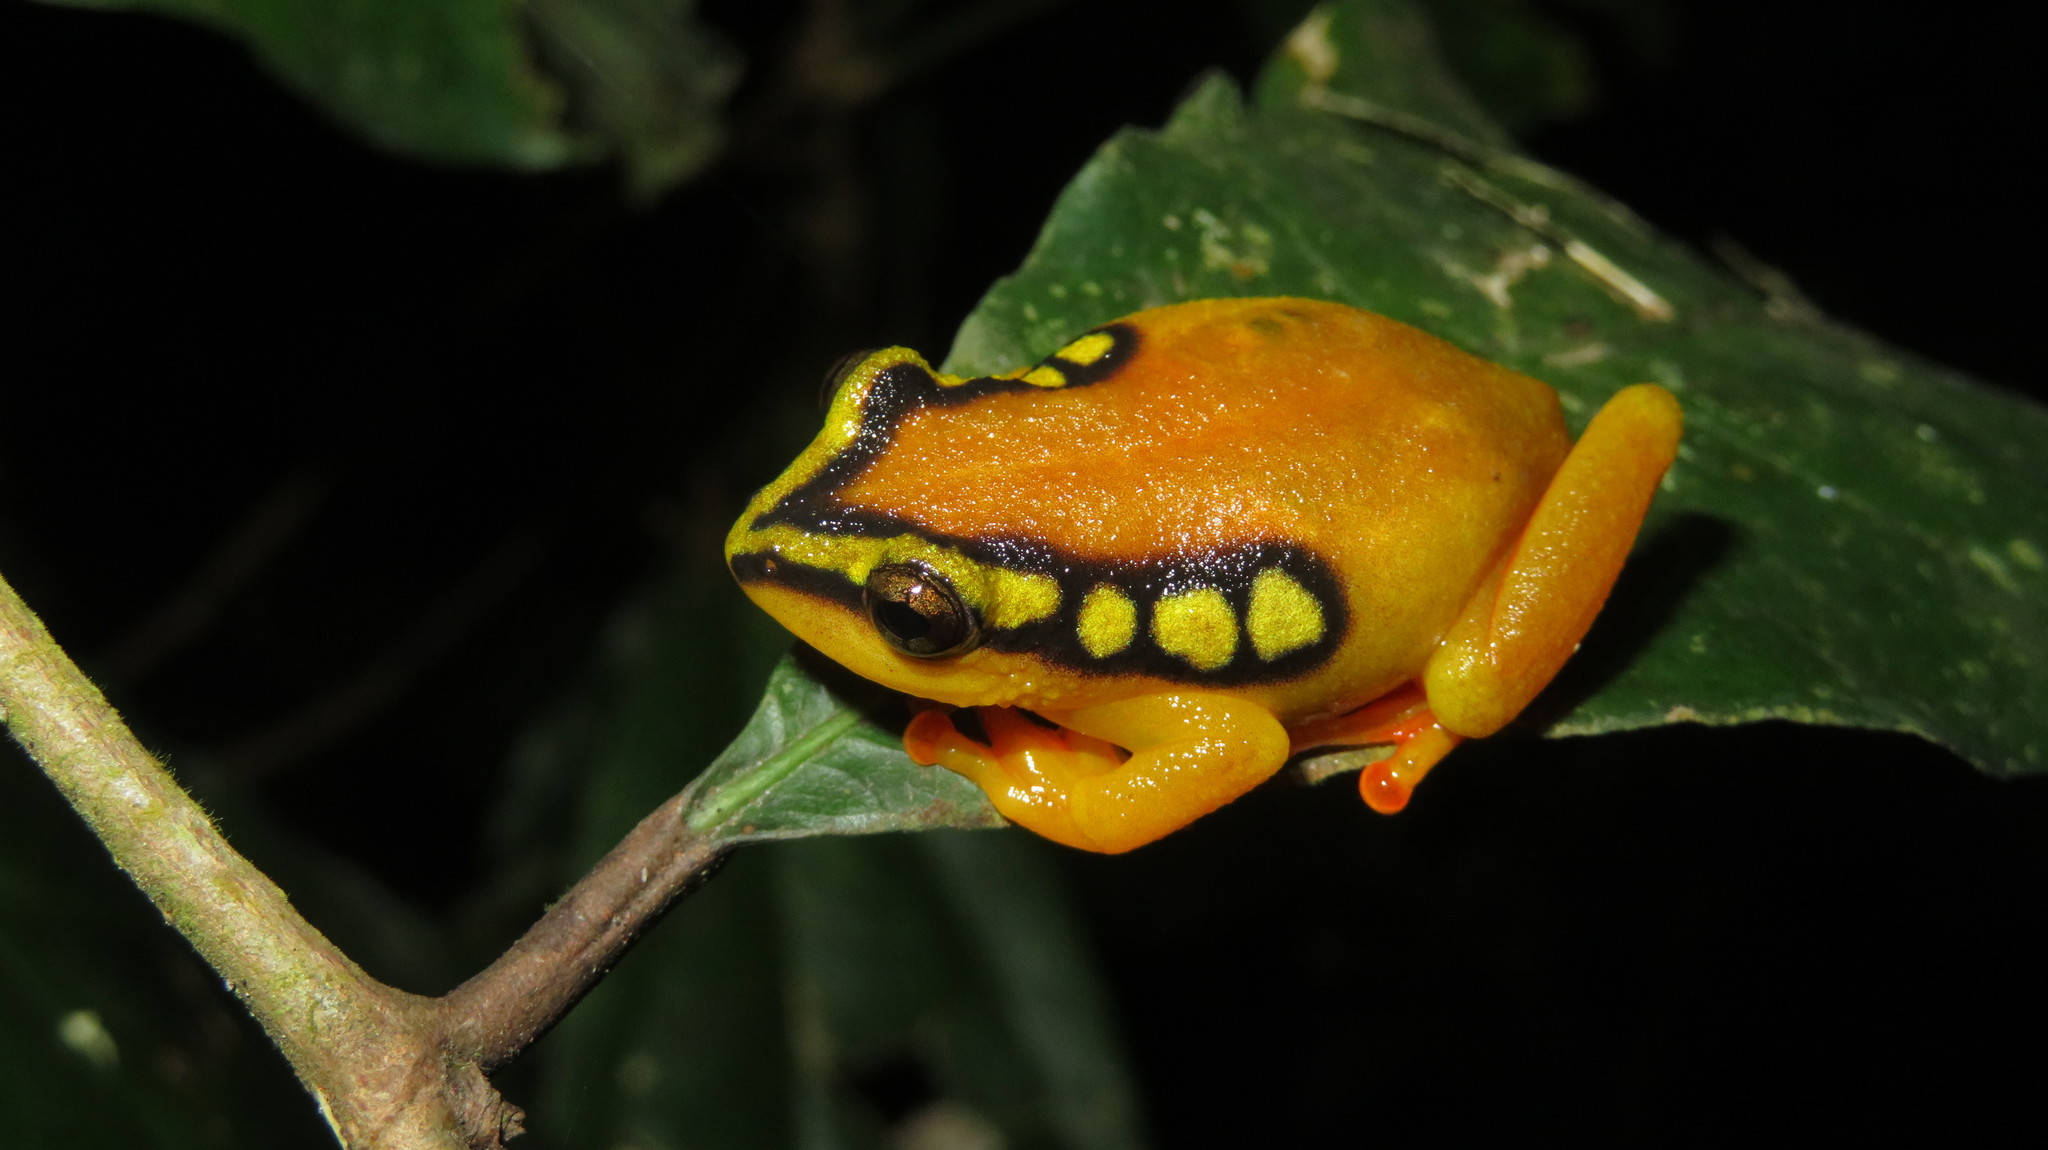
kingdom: Animalia
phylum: Chordata
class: Amphibia
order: Anura
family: Hyperoliidae
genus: Hyperolius
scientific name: Hyperolius substriatus
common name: Spotted reed frog
